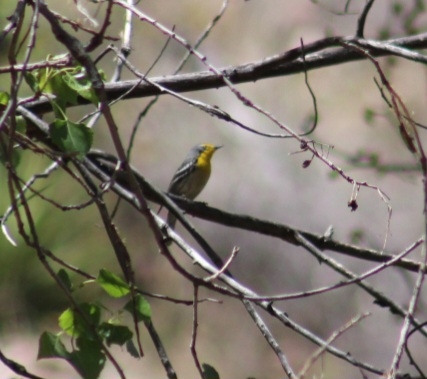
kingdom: Animalia
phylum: Chordata
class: Aves
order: Passeriformes
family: Parulidae
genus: Setophaga
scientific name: Setophaga graciae
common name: Grace's warbler
